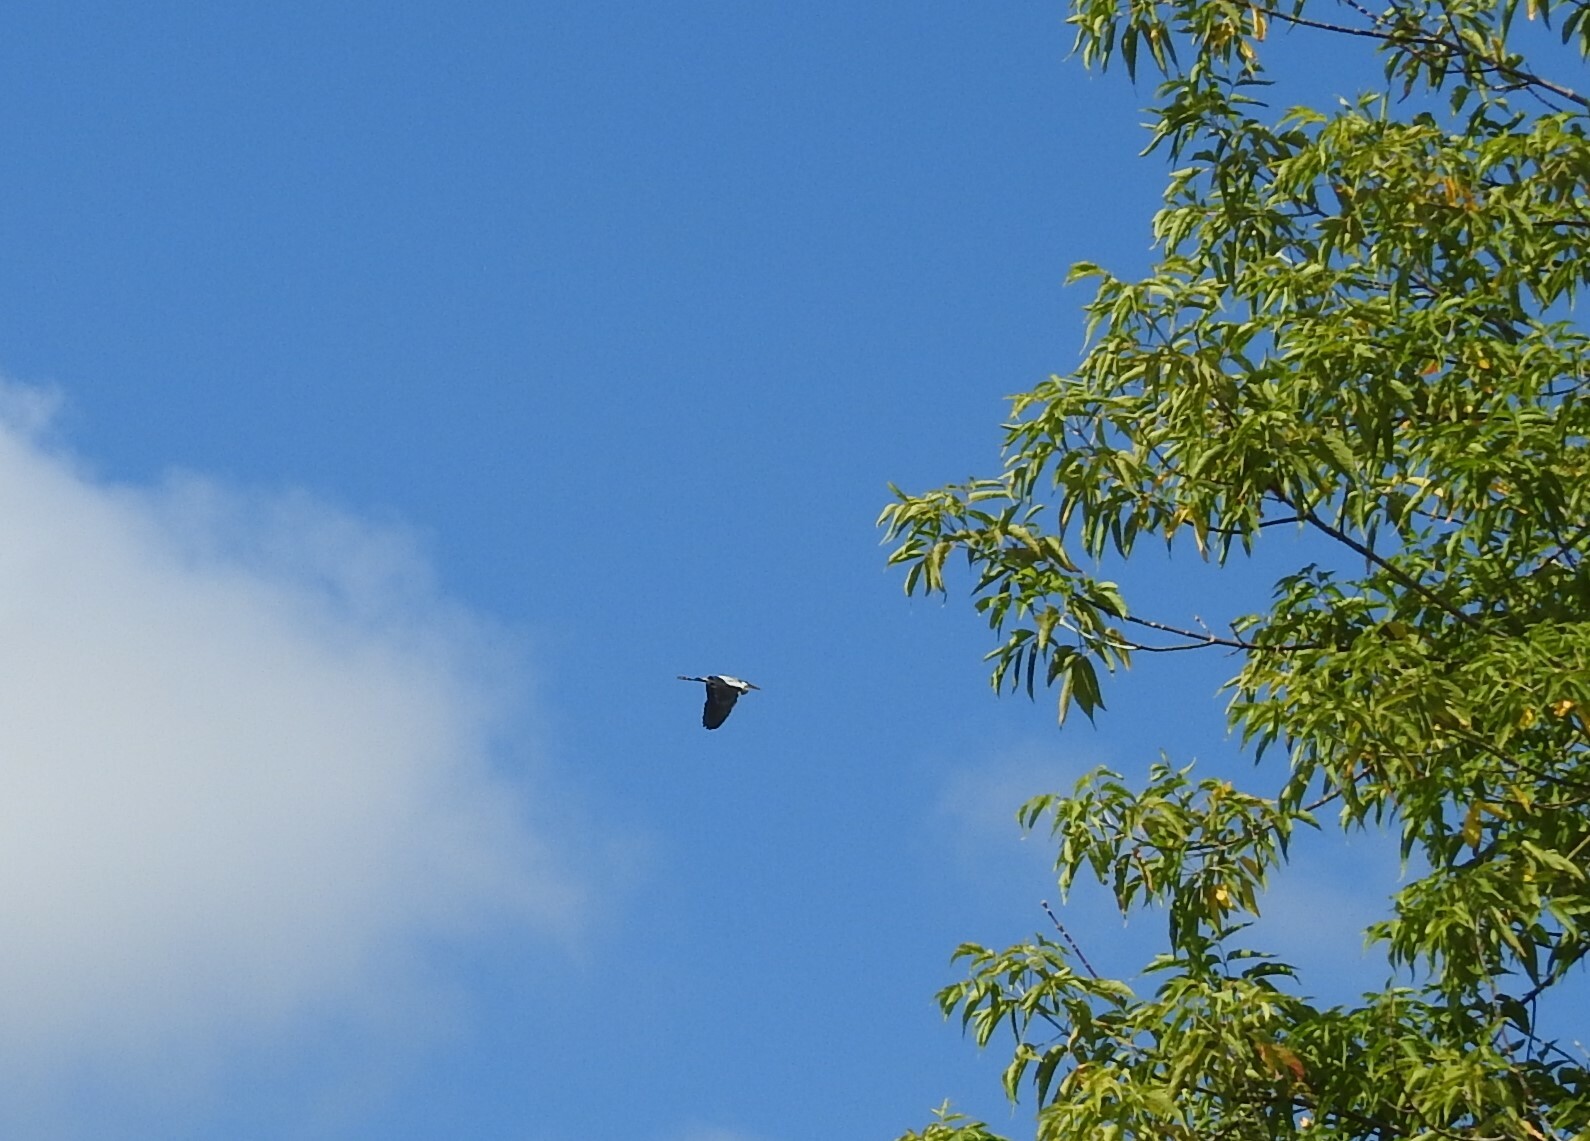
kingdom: Animalia
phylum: Chordata
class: Aves
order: Pelecaniformes
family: Ardeidae
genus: Ardea
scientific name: Ardea cinerea
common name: Grey heron
